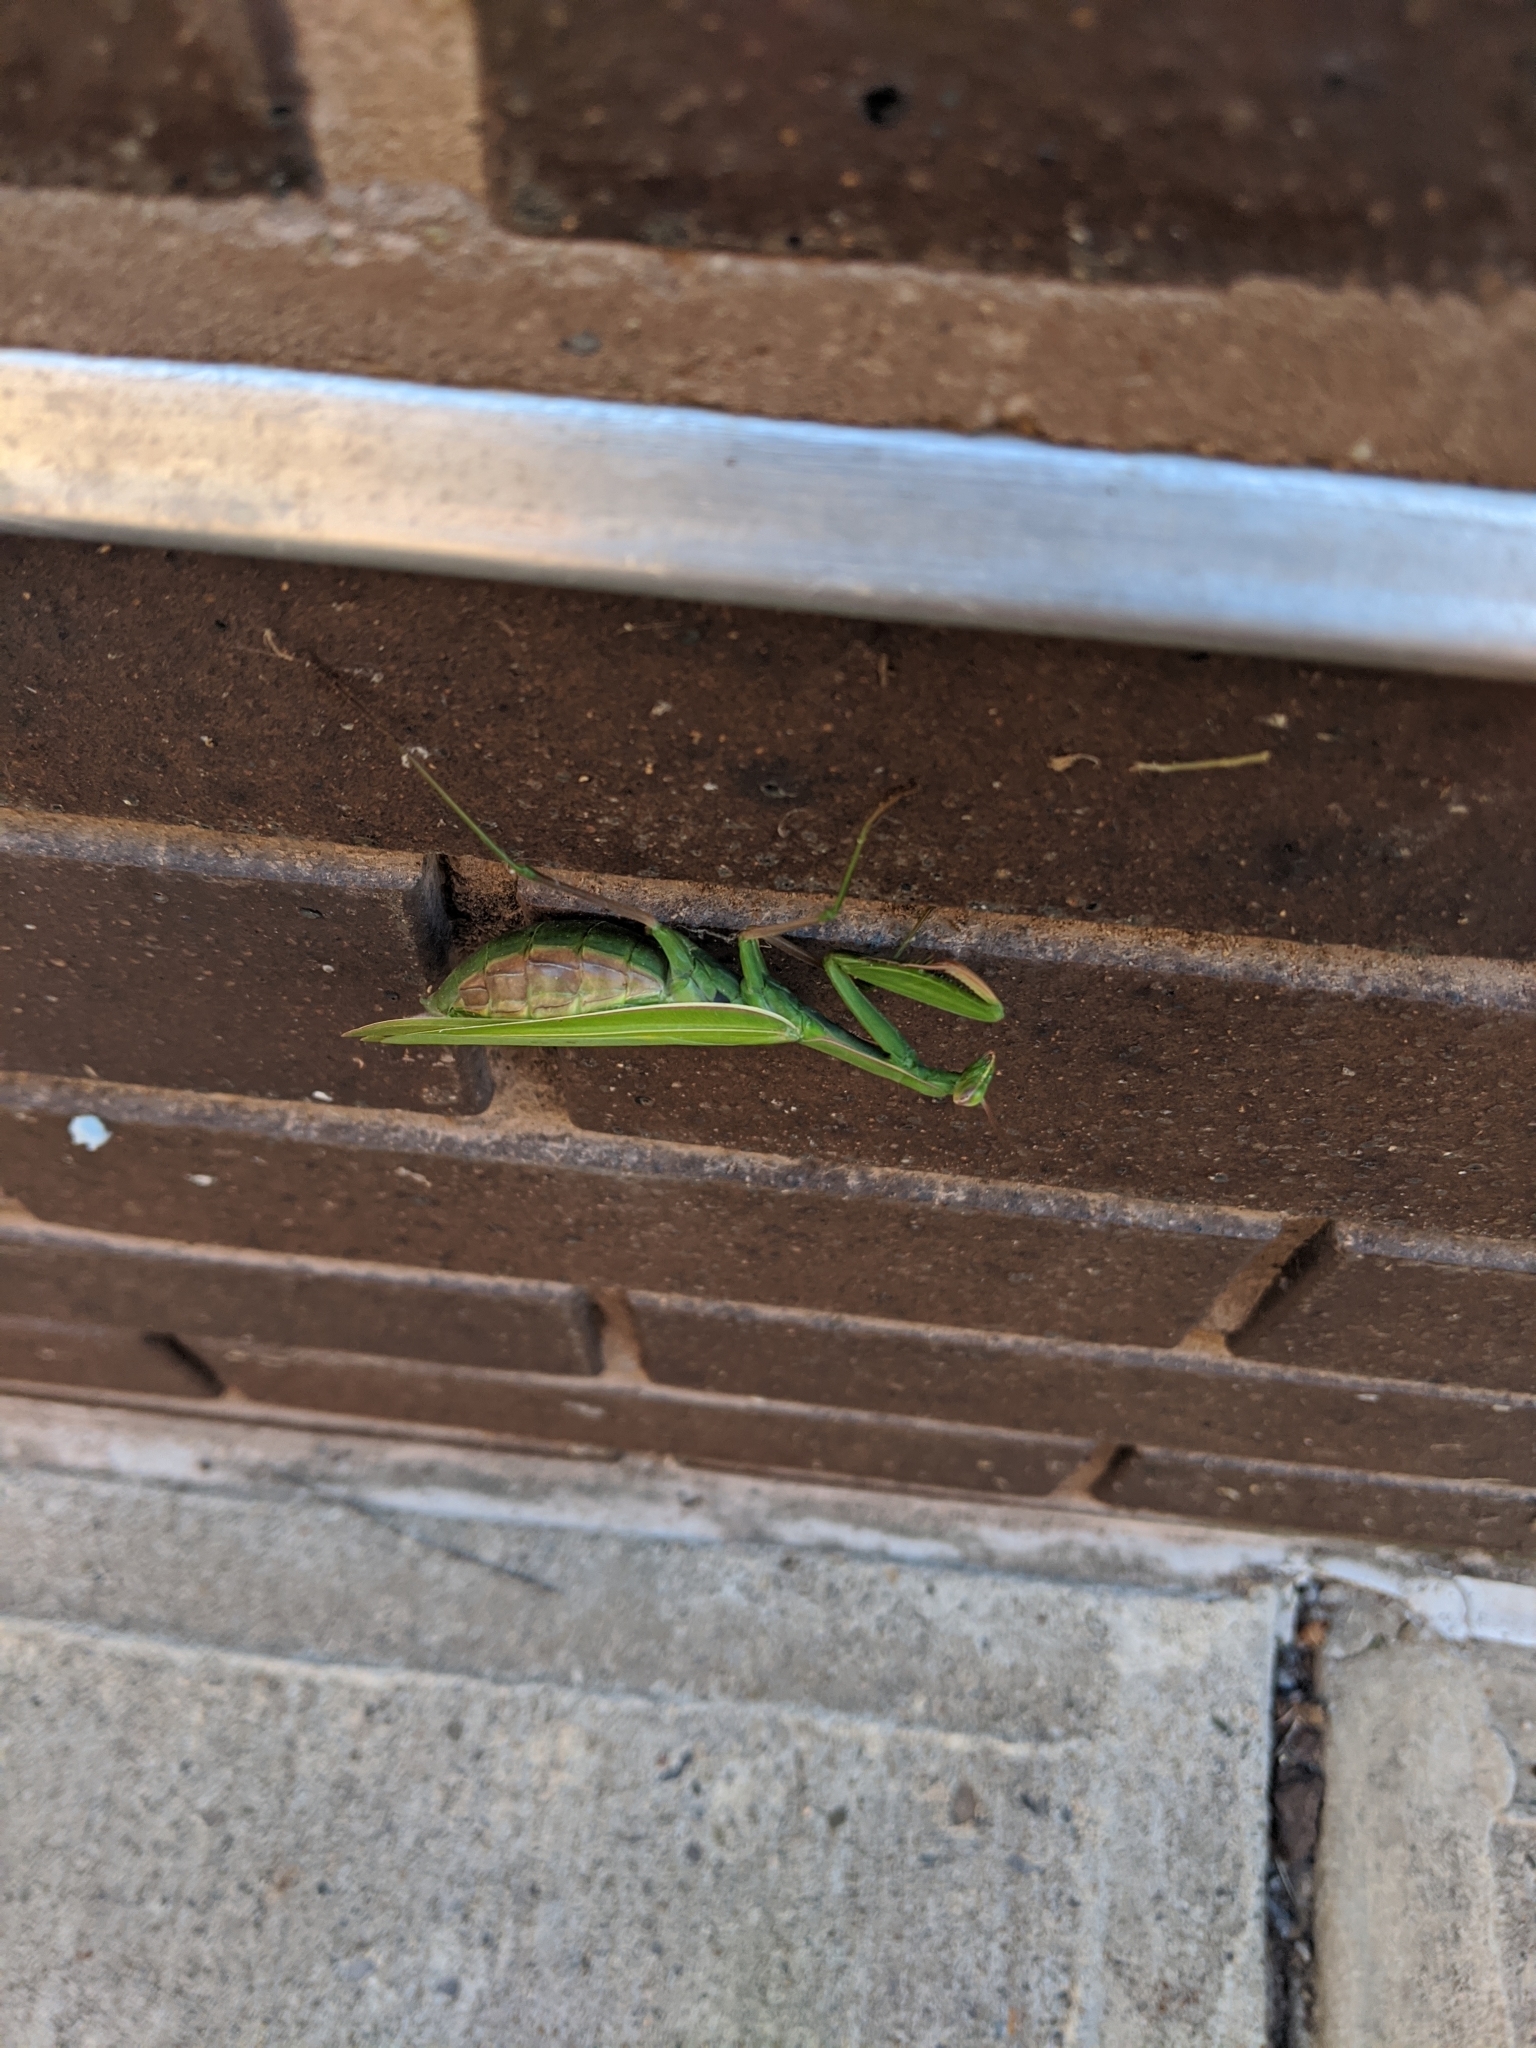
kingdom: Animalia
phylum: Arthropoda
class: Insecta
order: Mantodea
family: Mantidae
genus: Mantis
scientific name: Mantis religiosa
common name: Praying mantis
